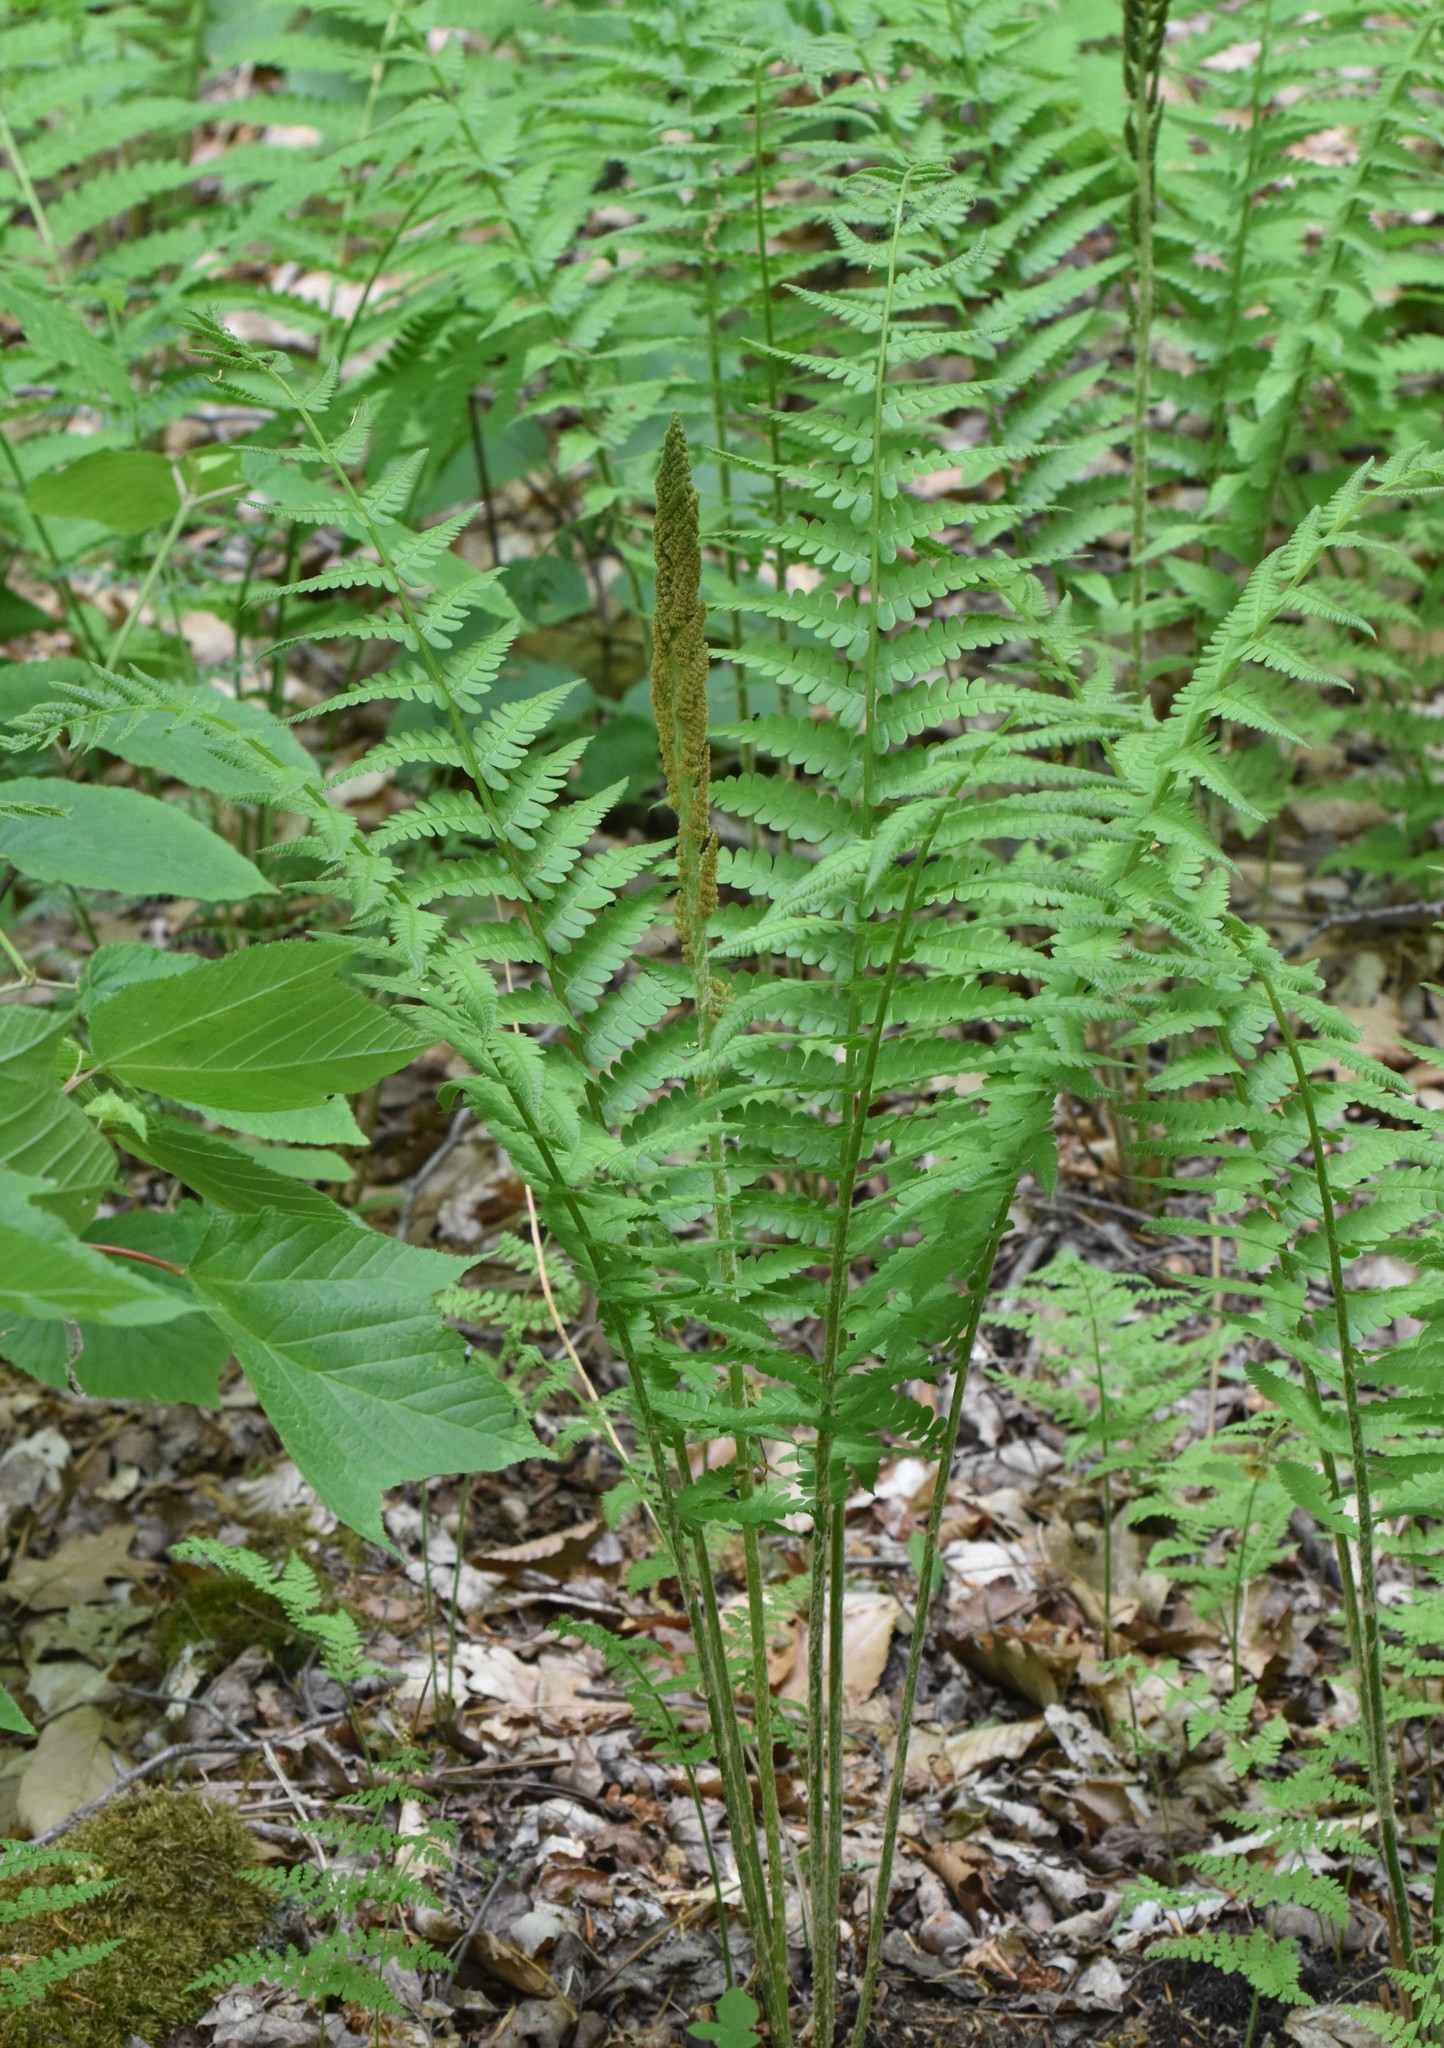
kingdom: Plantae
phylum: Tracheophyta
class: Polypodiopsida
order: Osmundales
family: Osmundaceae
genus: Osmundastrum
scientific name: Osmundastrum cinnamomeum
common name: Cinnamon fern
